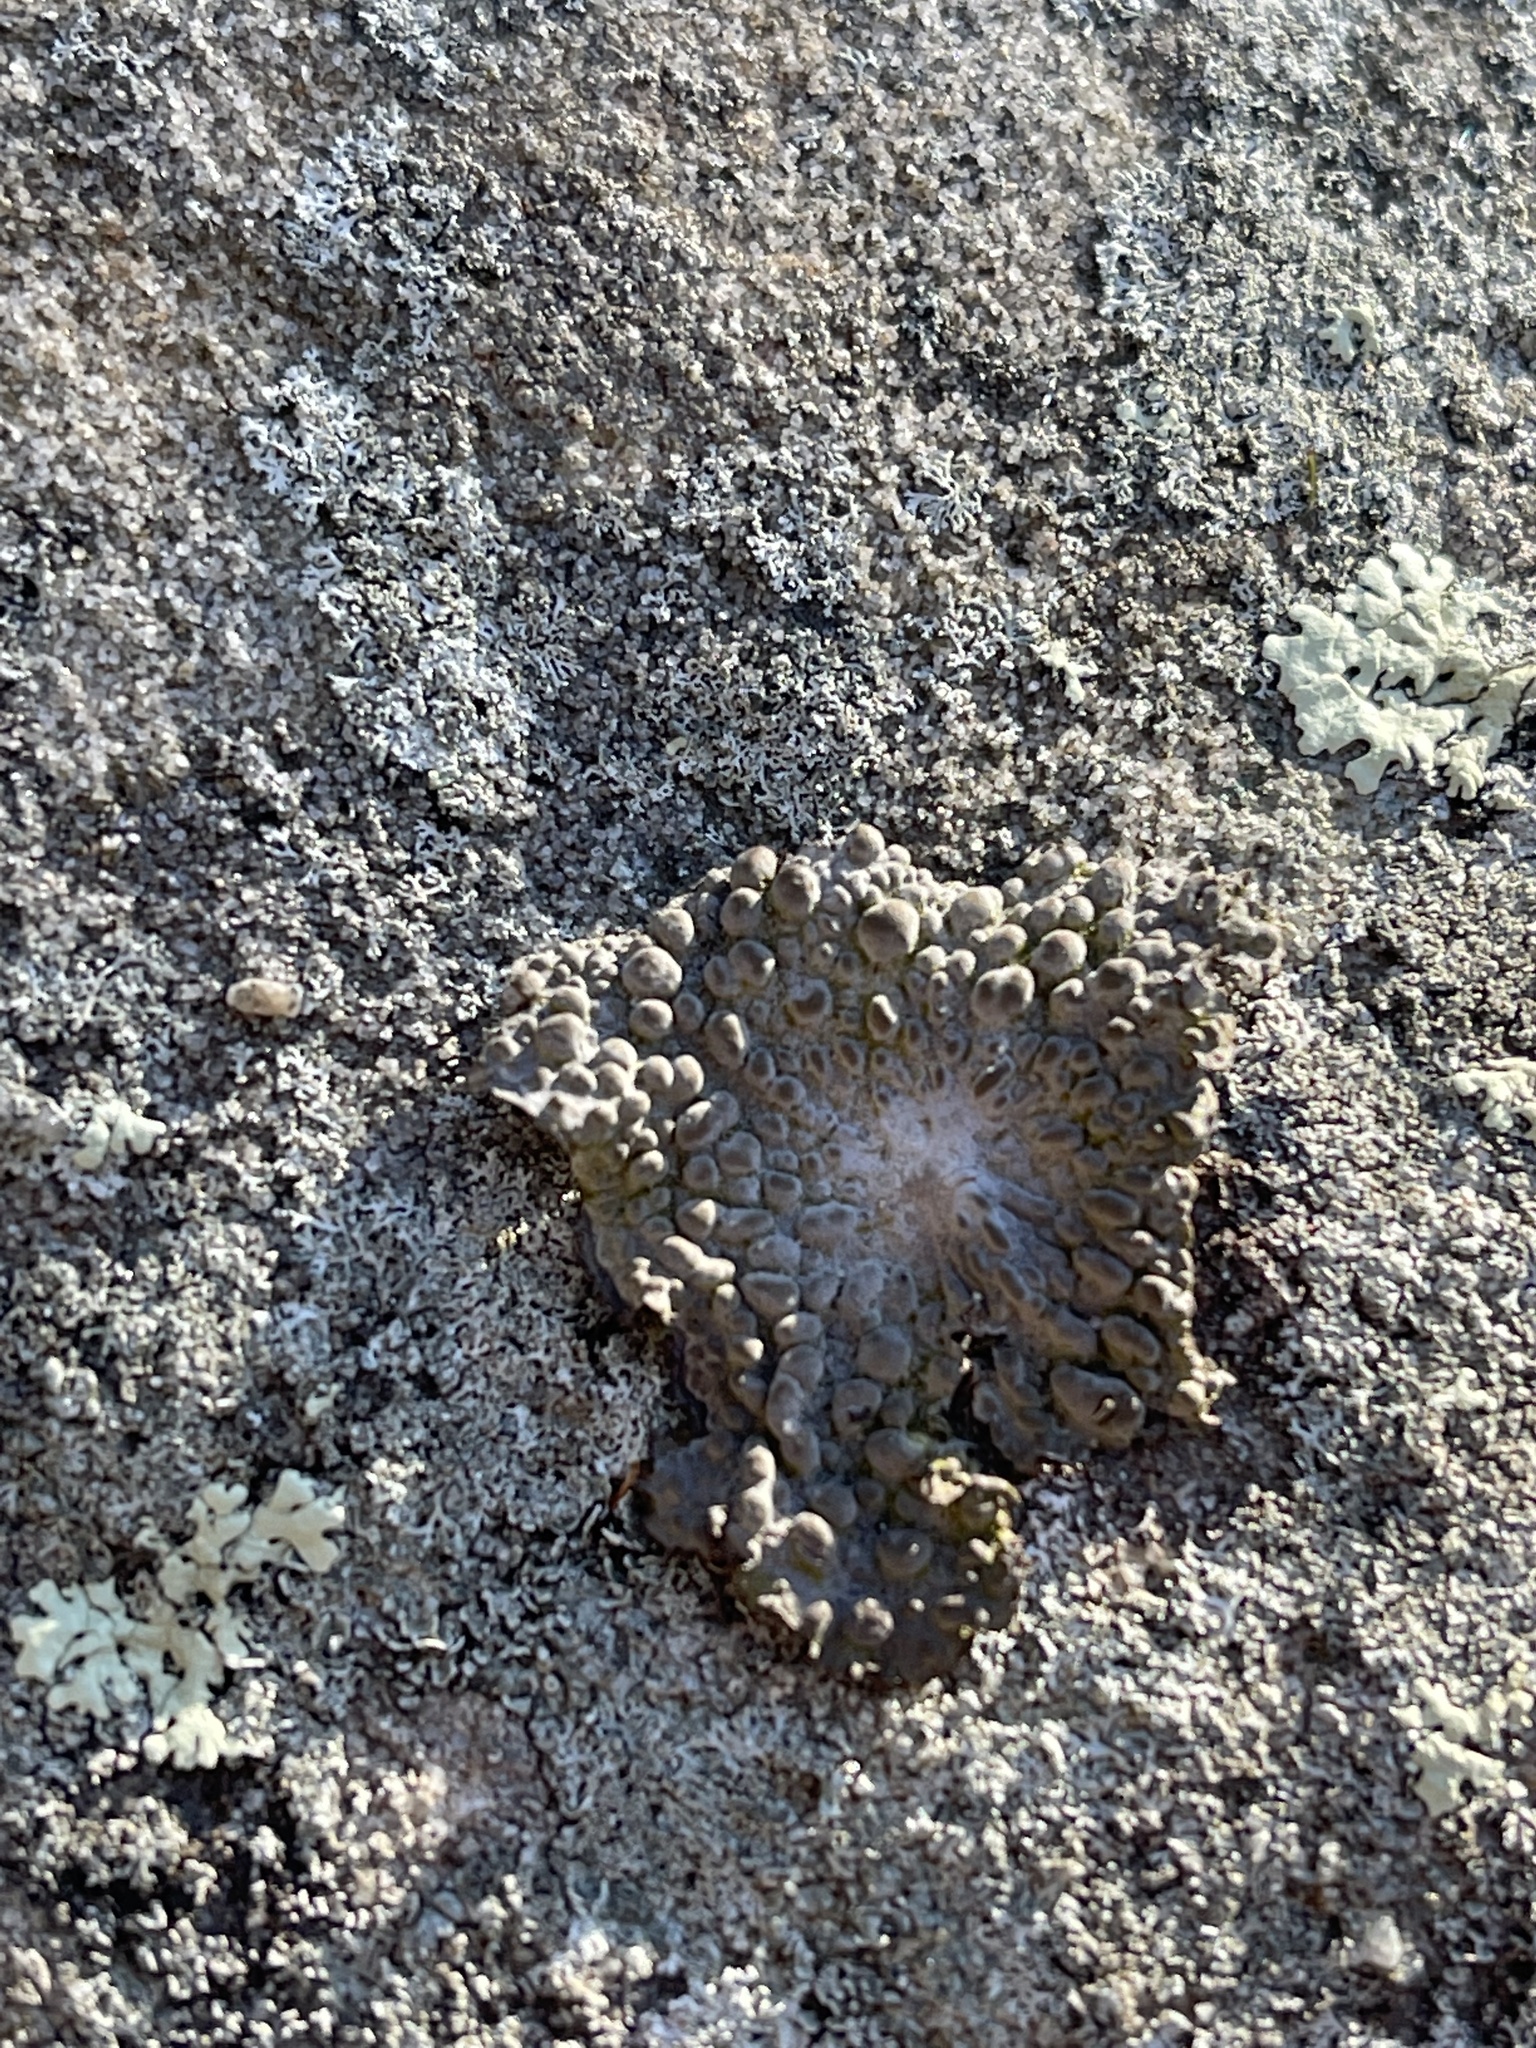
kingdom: Fungi
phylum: Ascomycota
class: Lecanoromycetes
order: Umbilicariales
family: Umbilicariaceae
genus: Lasallia
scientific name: Lasallia papulosa
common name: Common toadskin lichen
